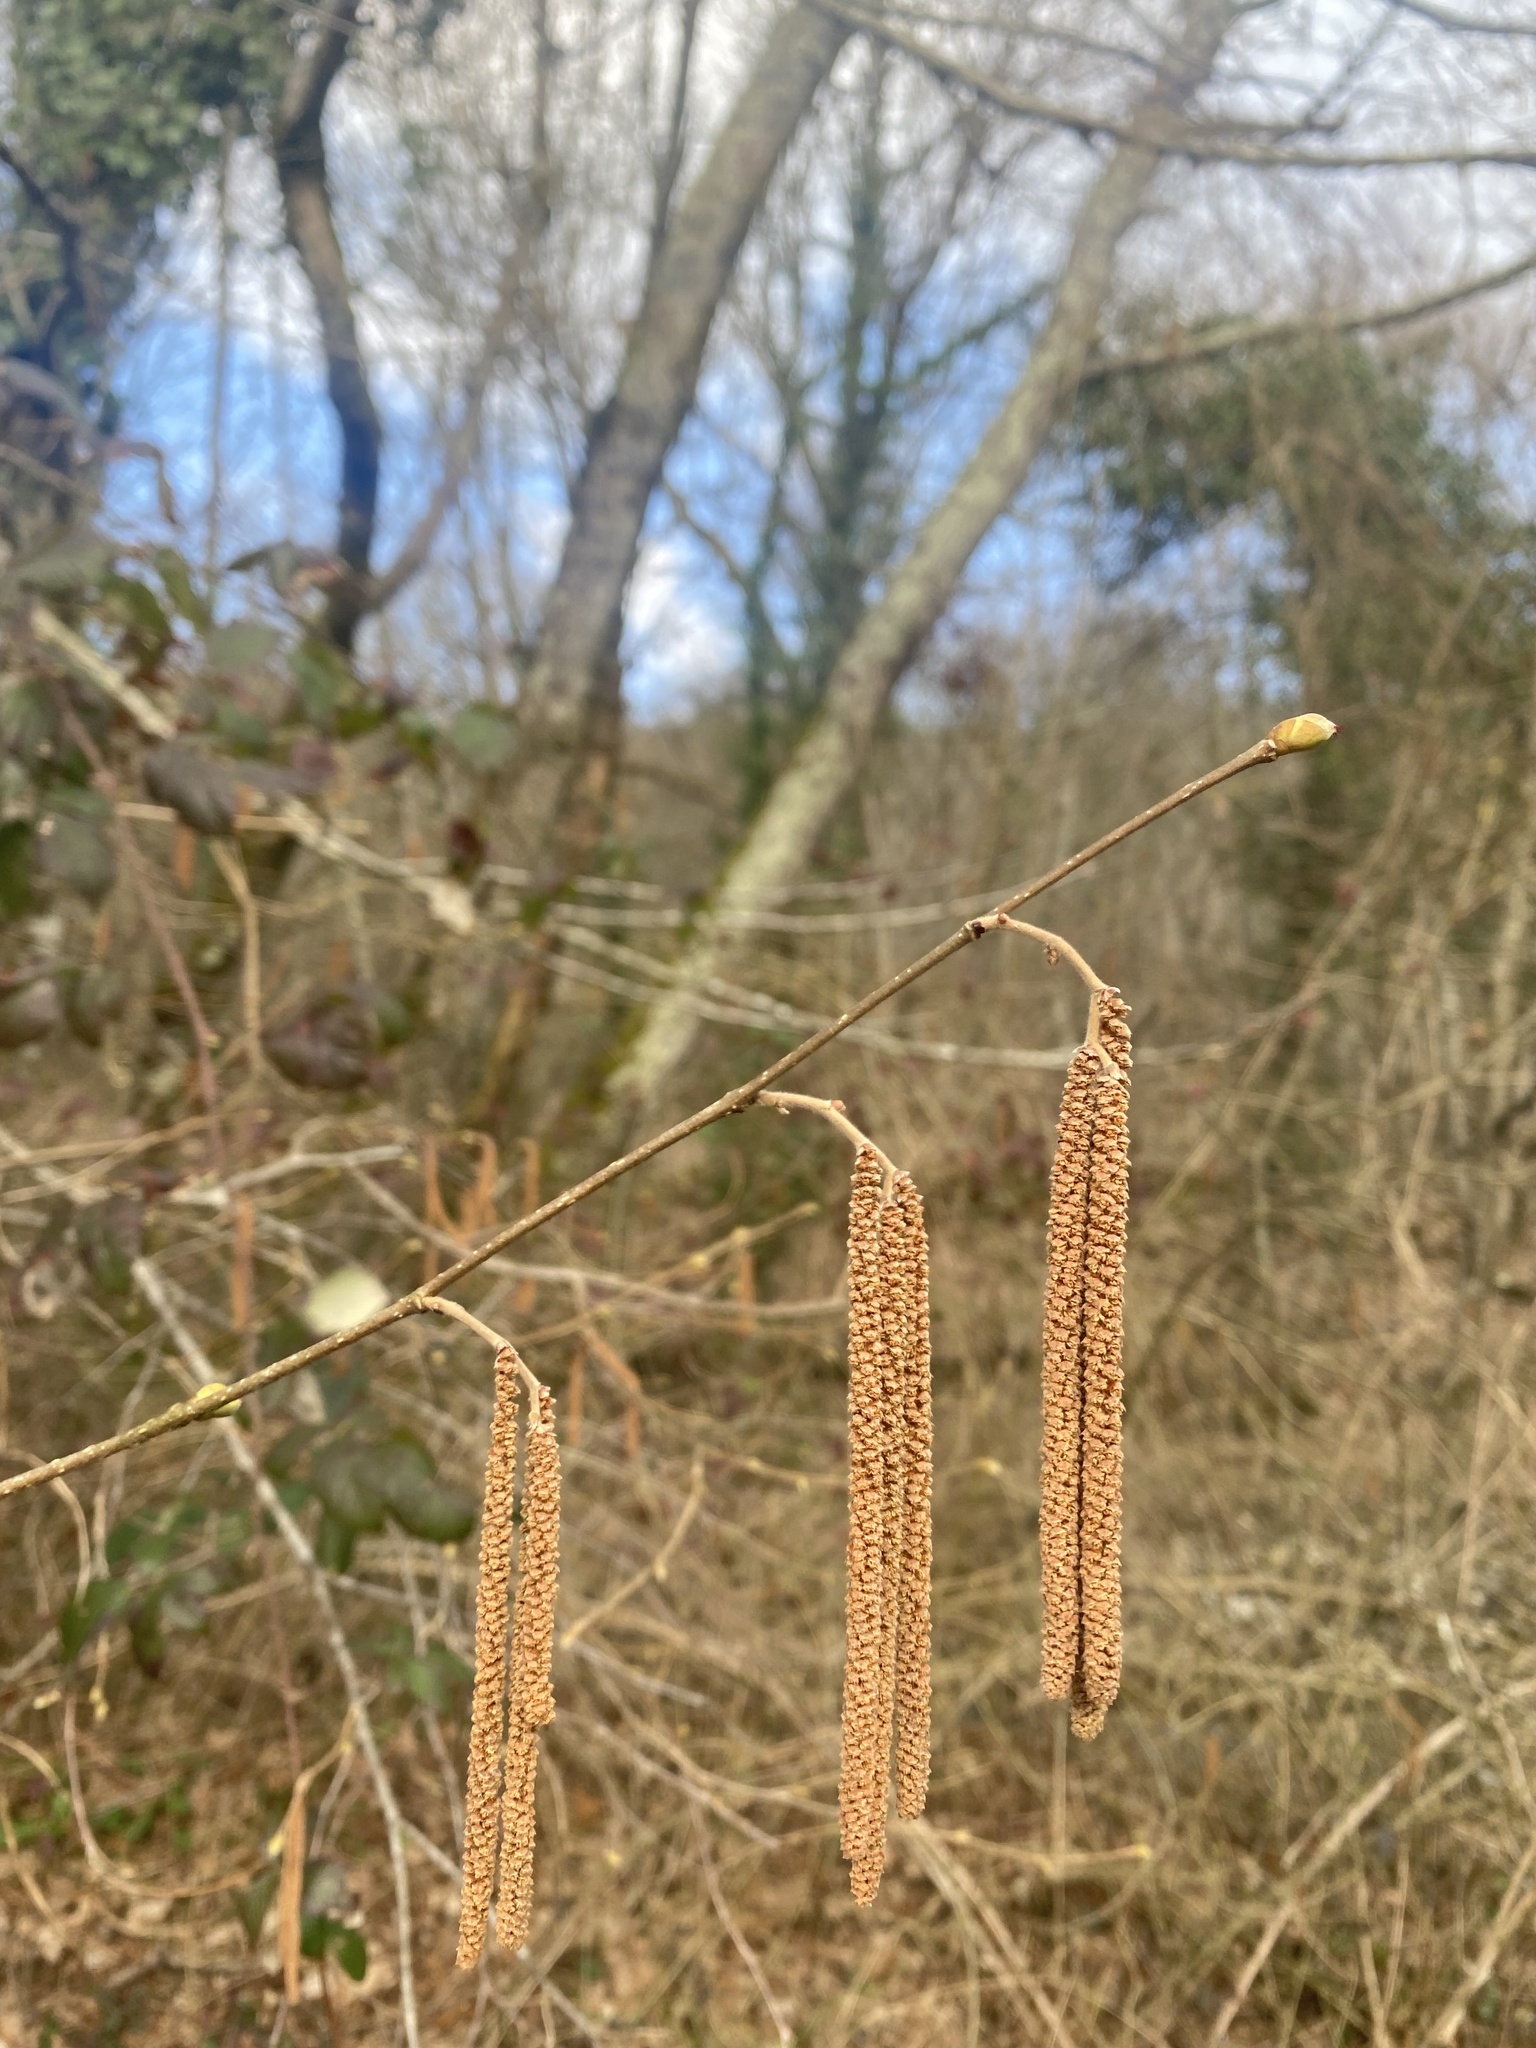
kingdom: Plantae
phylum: Tracheophyta
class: Magnoliopsida
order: Fagales
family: Betulaceae
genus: Corylus
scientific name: Corylus avellana
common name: European hazel
